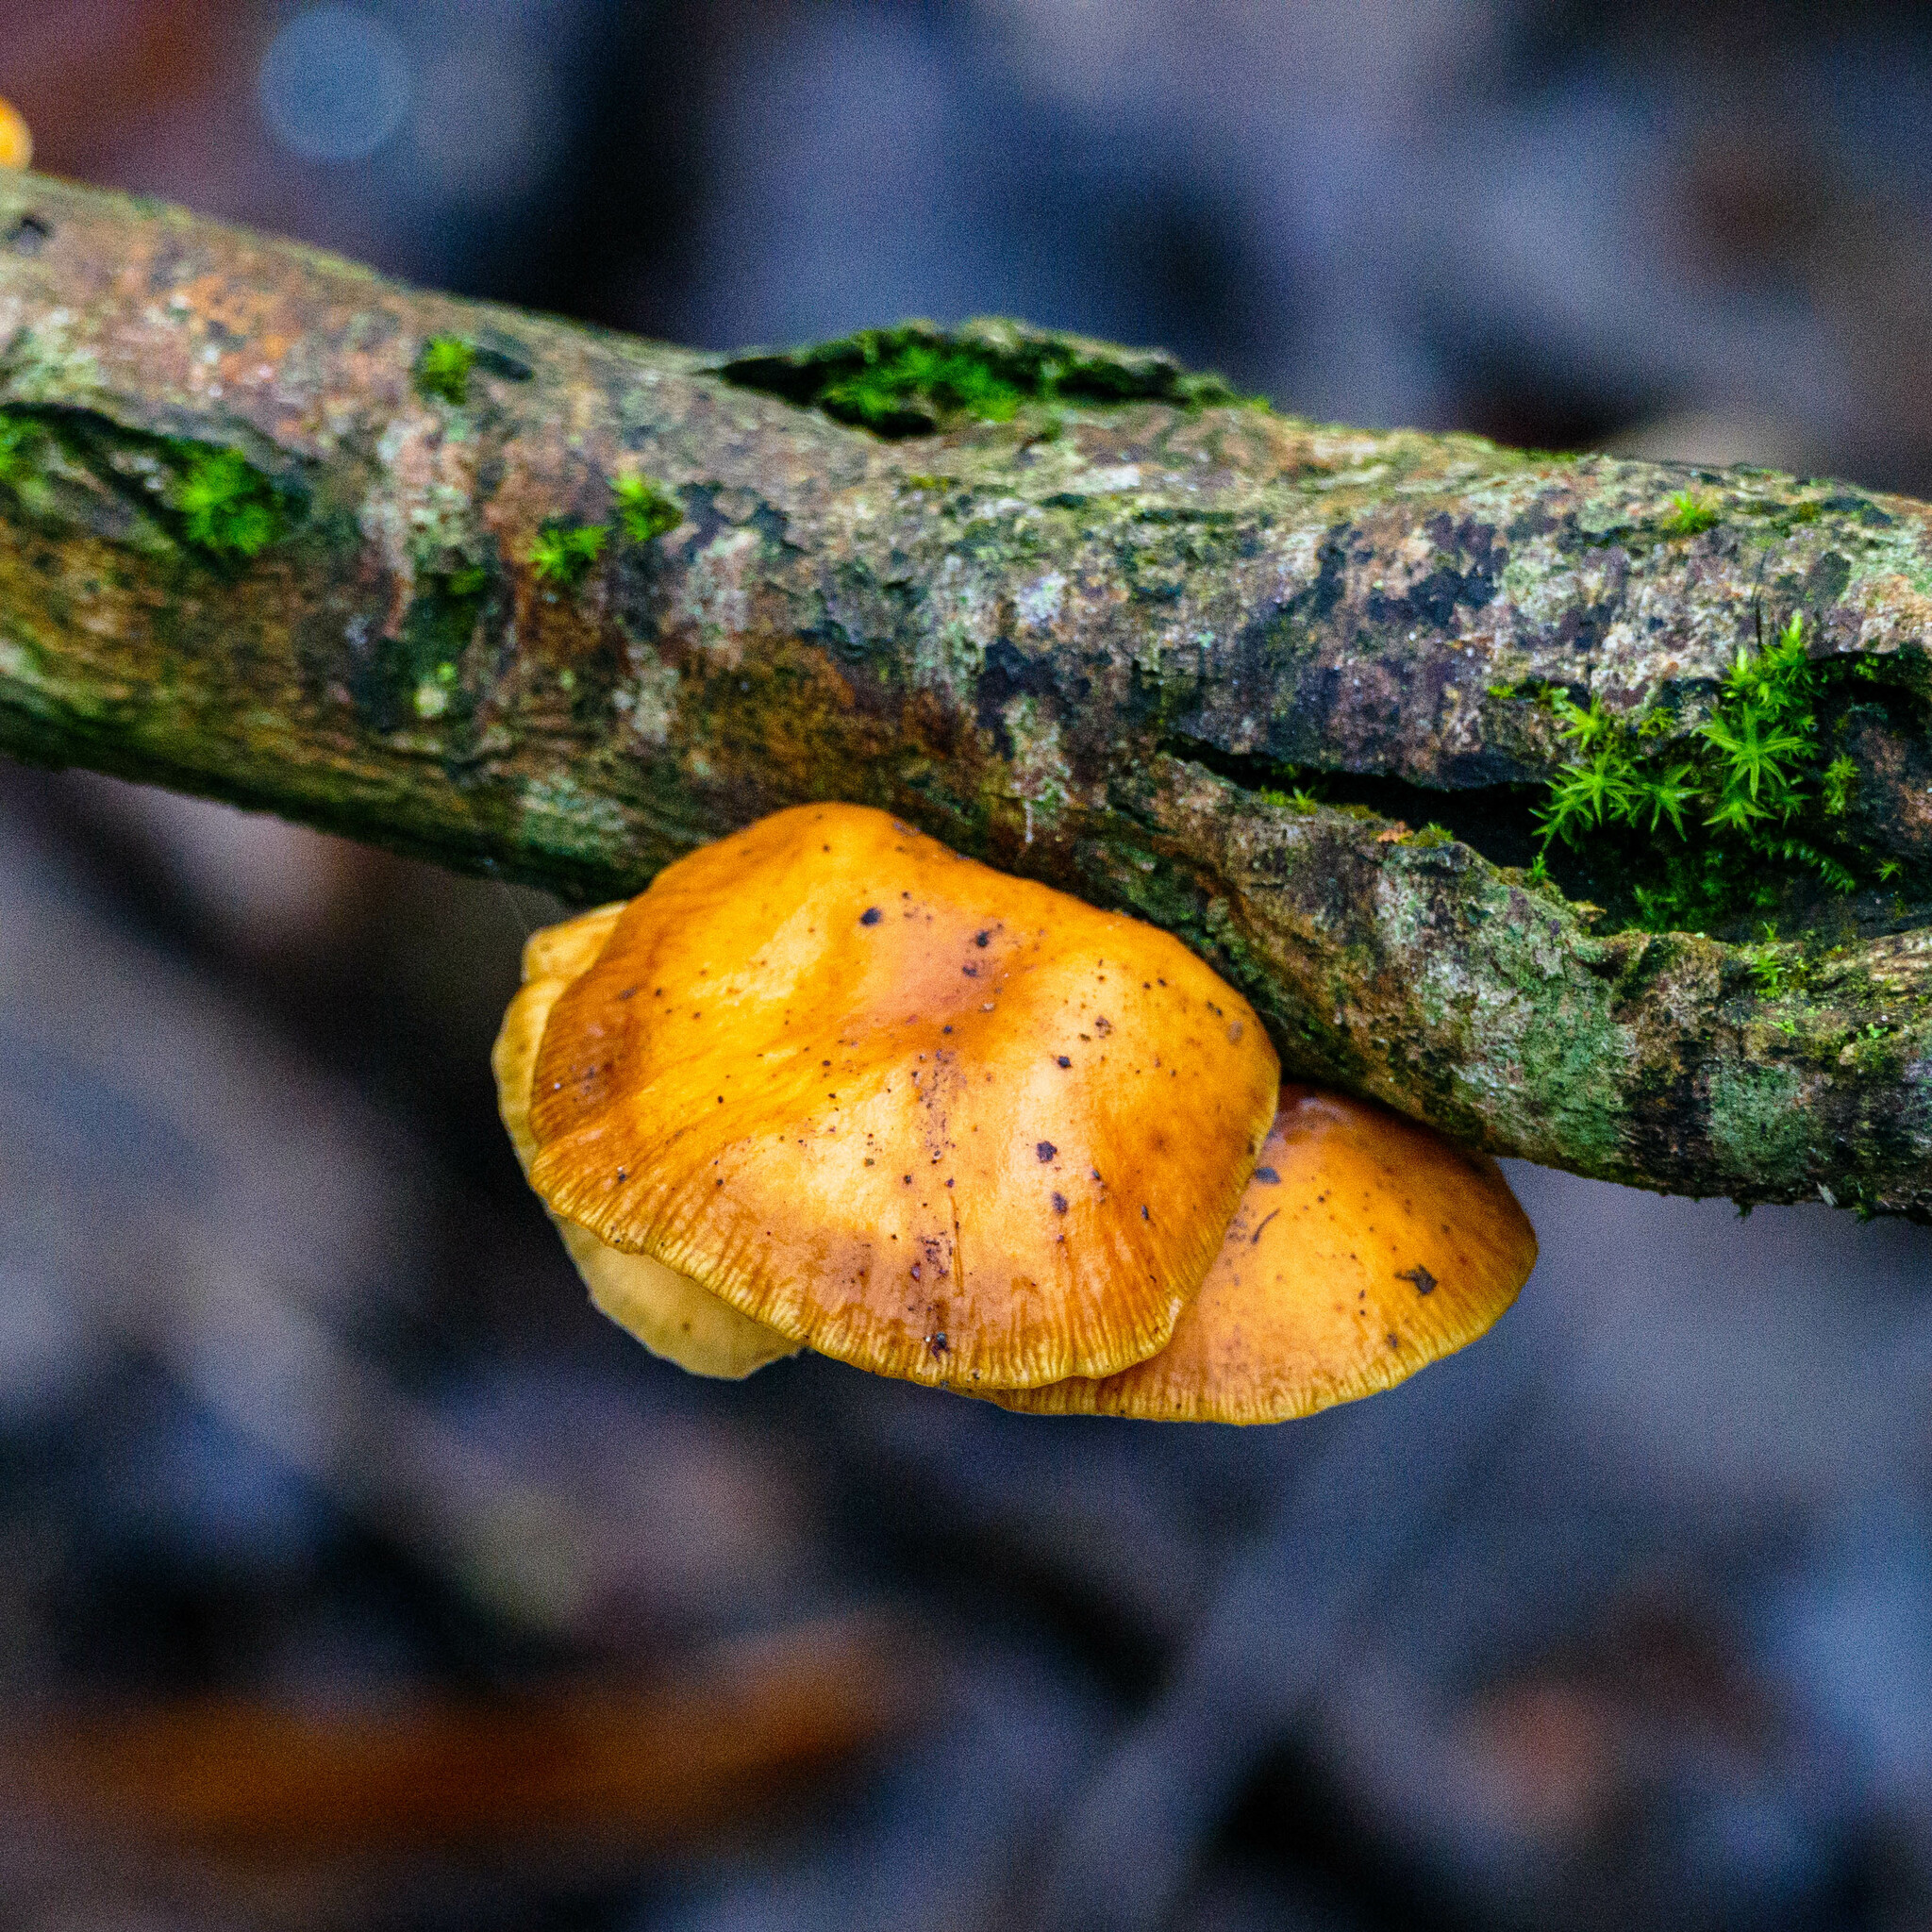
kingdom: Fungi
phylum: Basidiomycota
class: Agaricomycetes
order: Agaricales
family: Physalacriaceae
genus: Flammulina
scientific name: Flammulina
